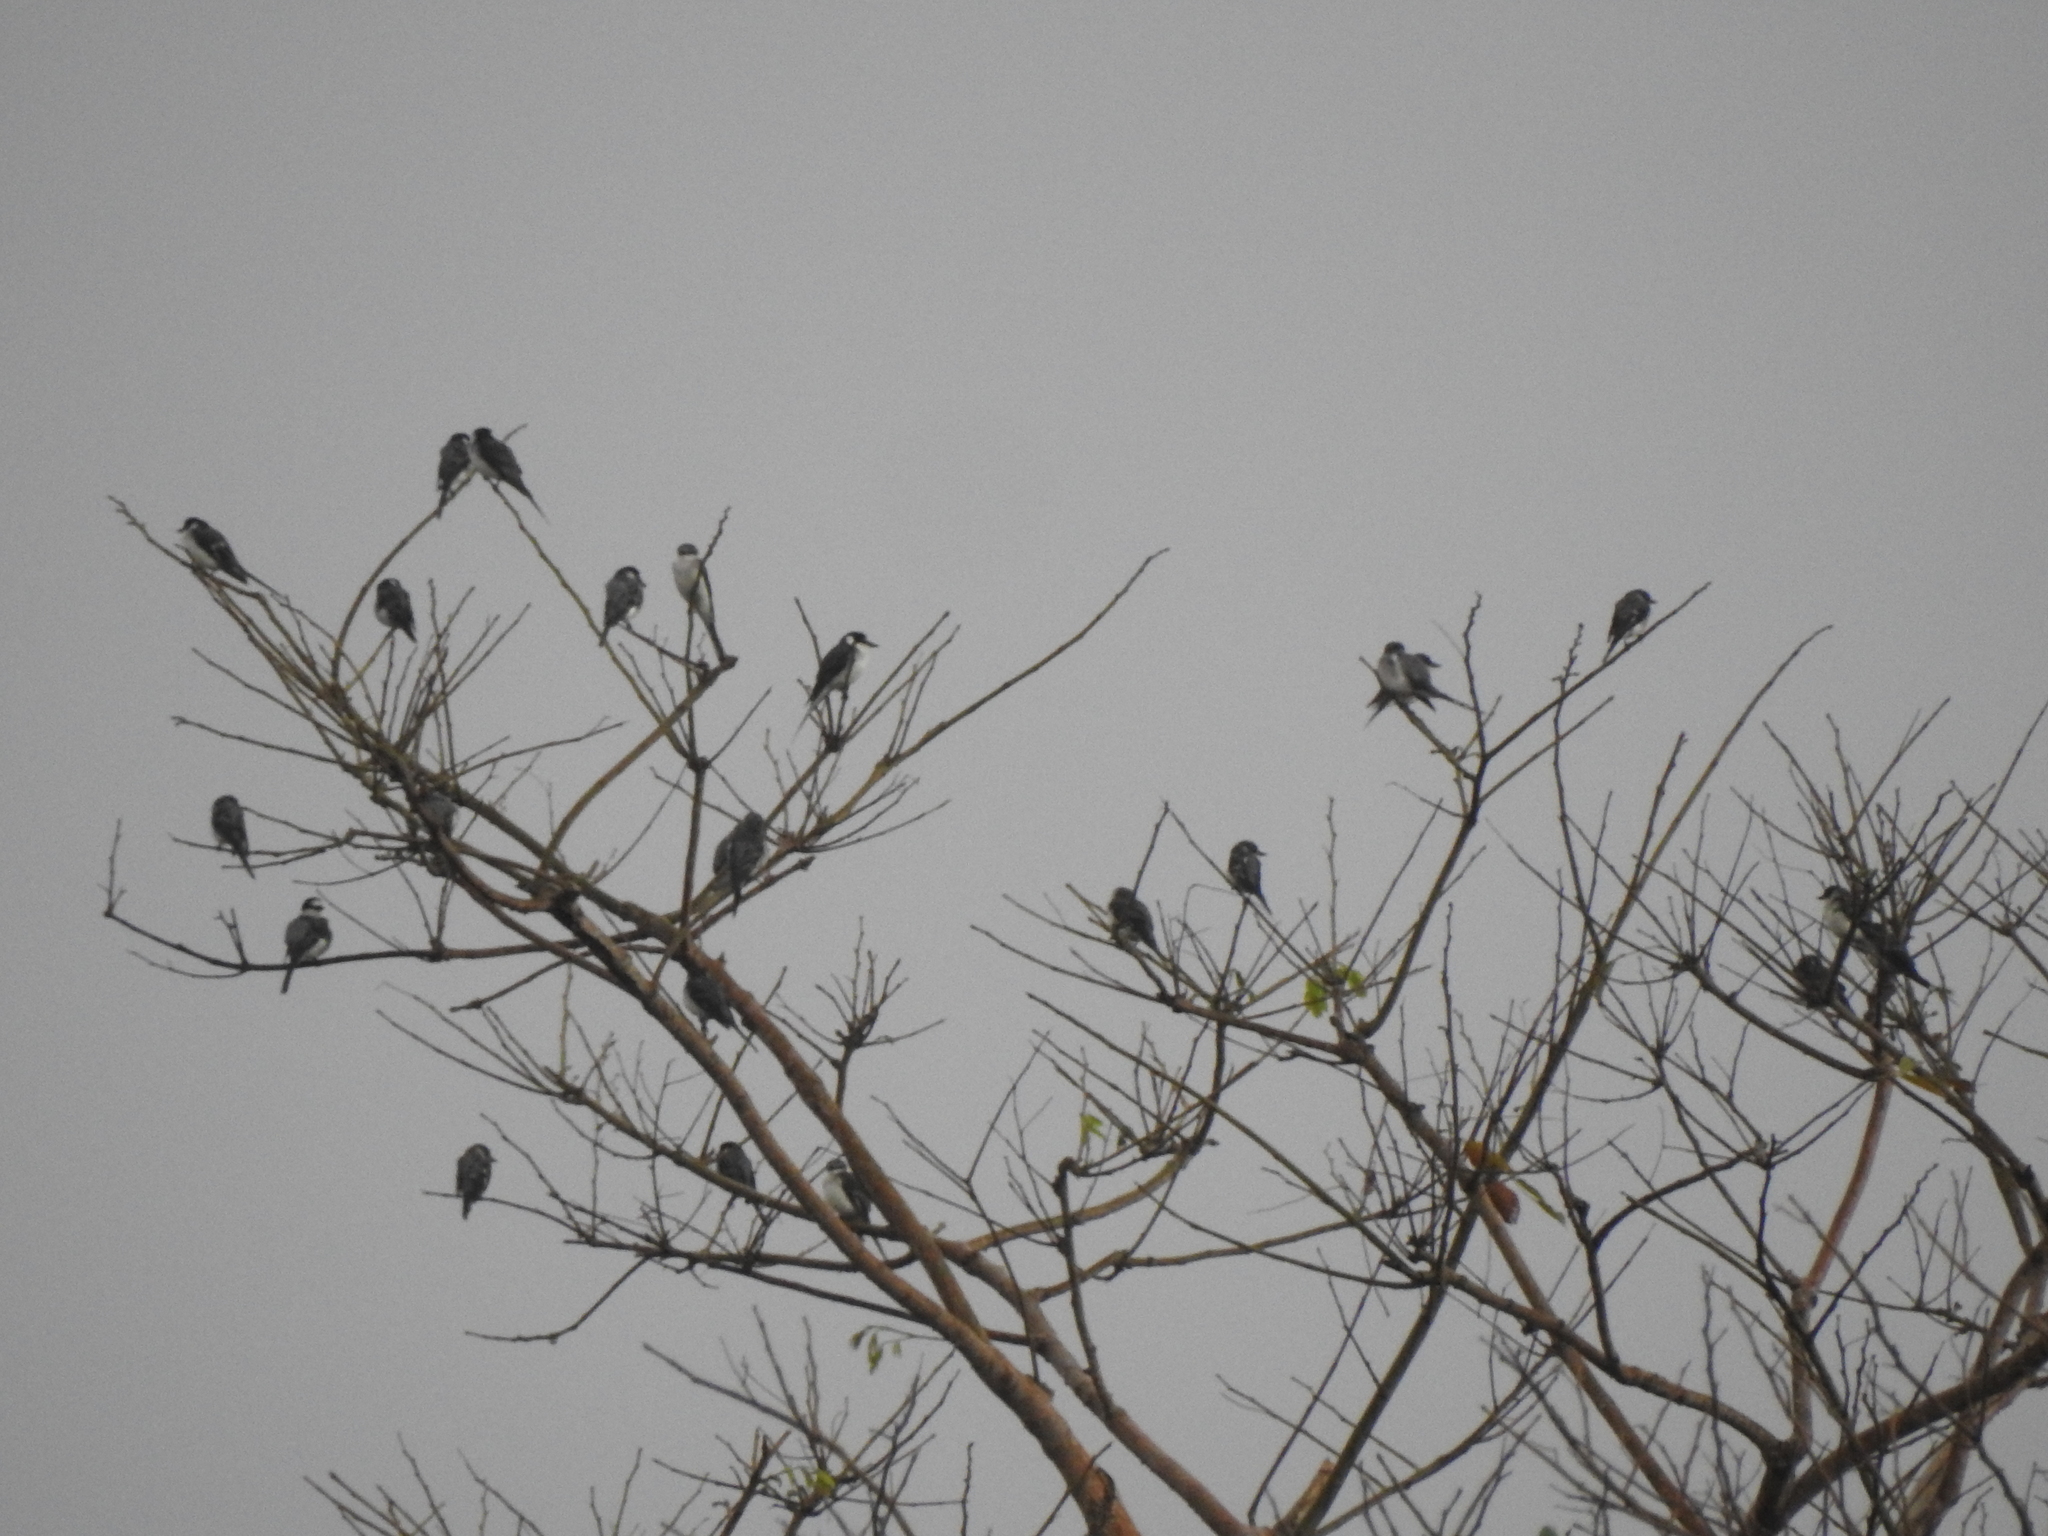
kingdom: Animalia
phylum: Chordata
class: Aves
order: Passeriformes
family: Campephagidae
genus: Pericrocotus
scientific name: Pericrocotus divaricatus
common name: Ashy minivet
